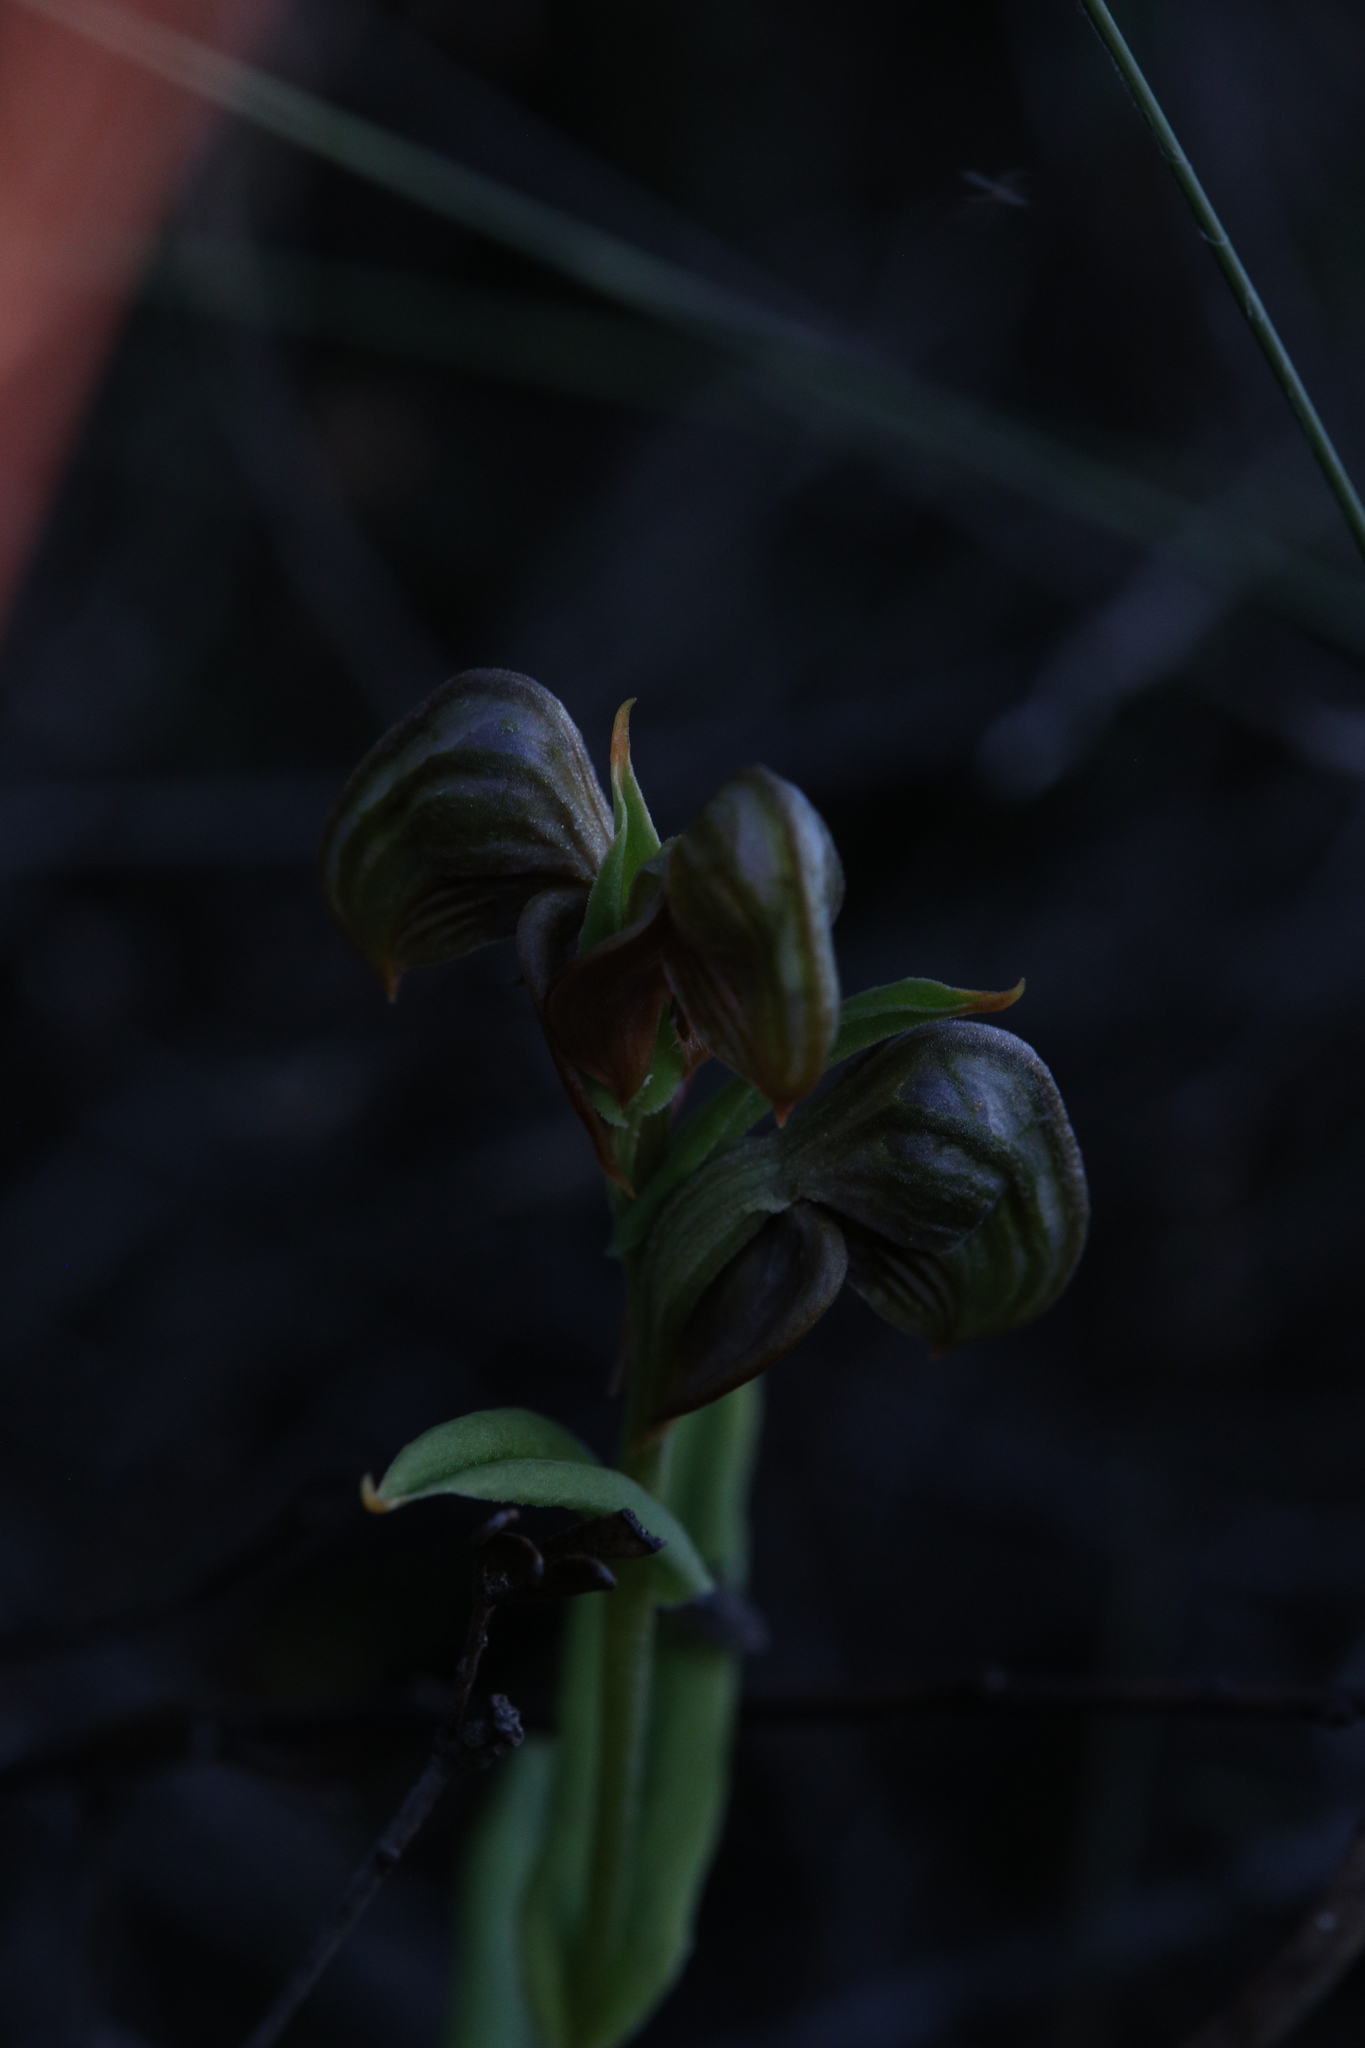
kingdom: Plantae
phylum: Tracheophyta
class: Liliopsida
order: Asparagales
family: Orchidaceae
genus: Pterostylis
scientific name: Pterostylis sanguinea
